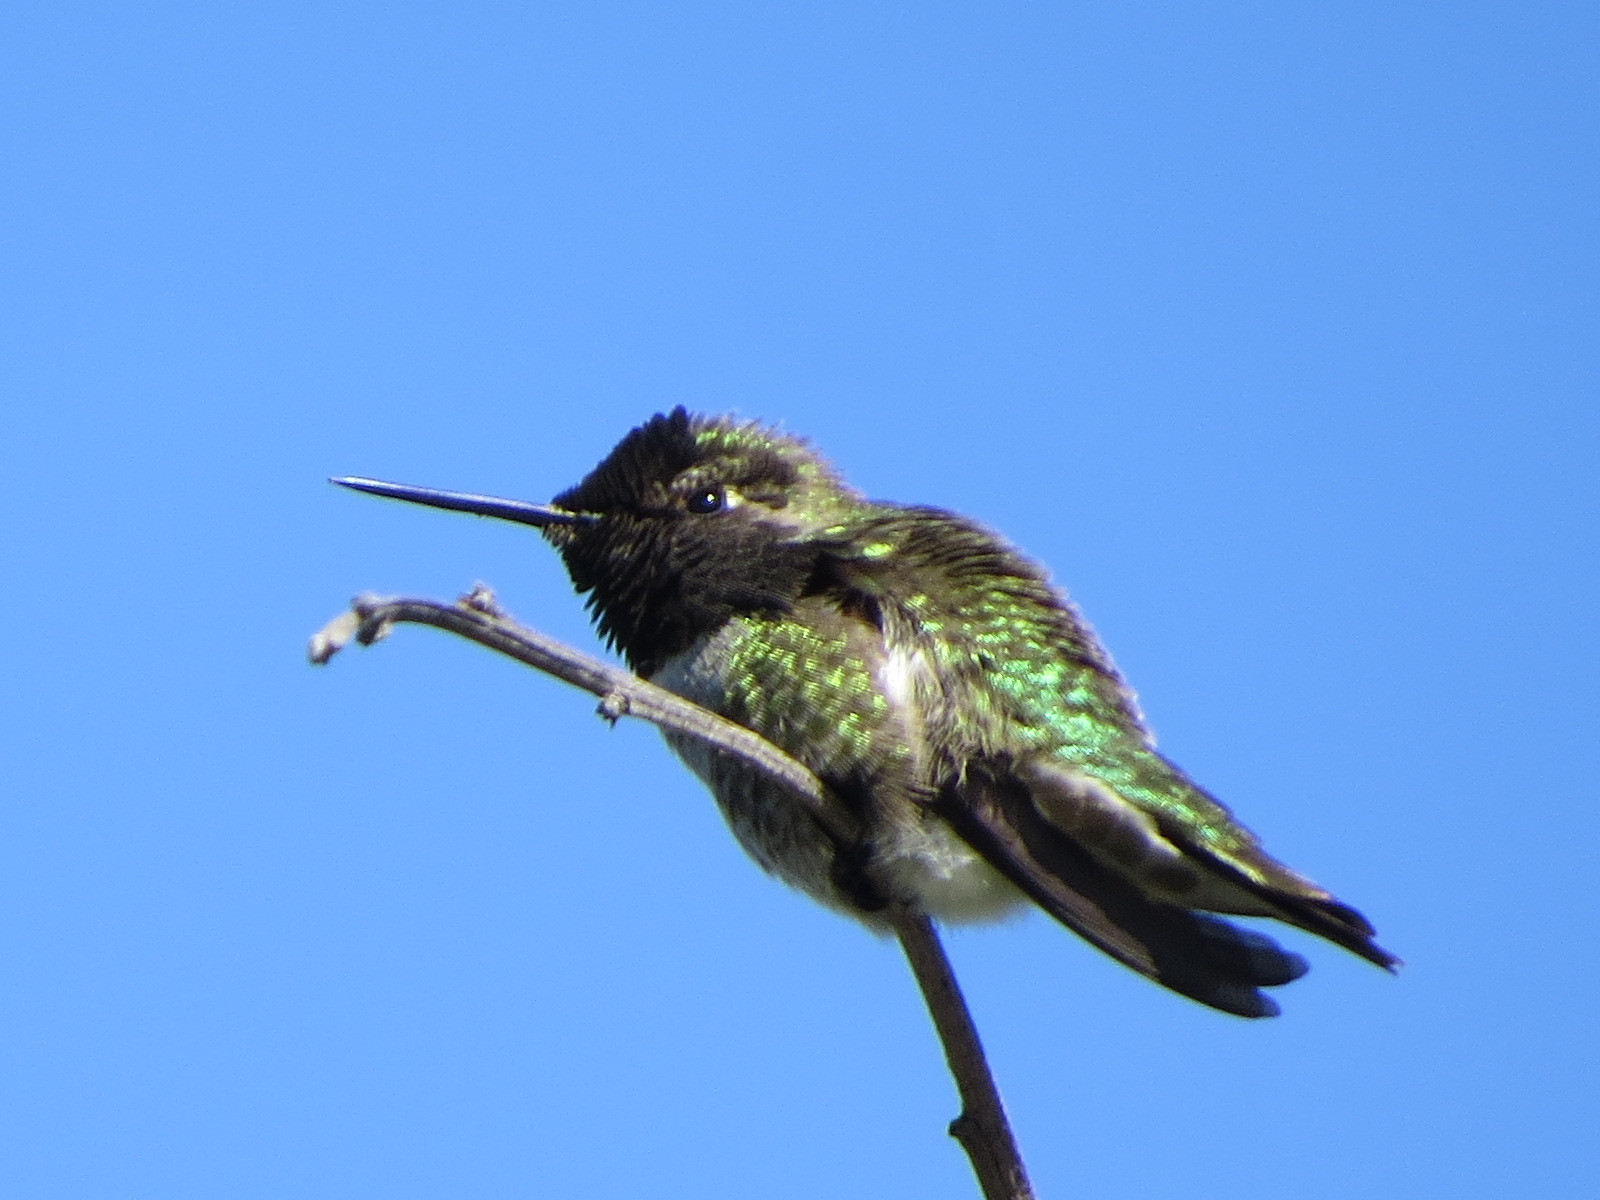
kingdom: Animalia
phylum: Chordata
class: Aves
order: Apodiformes
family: Trochilidae
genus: Calypte
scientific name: Calypte anna
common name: Anna's hummingbird
